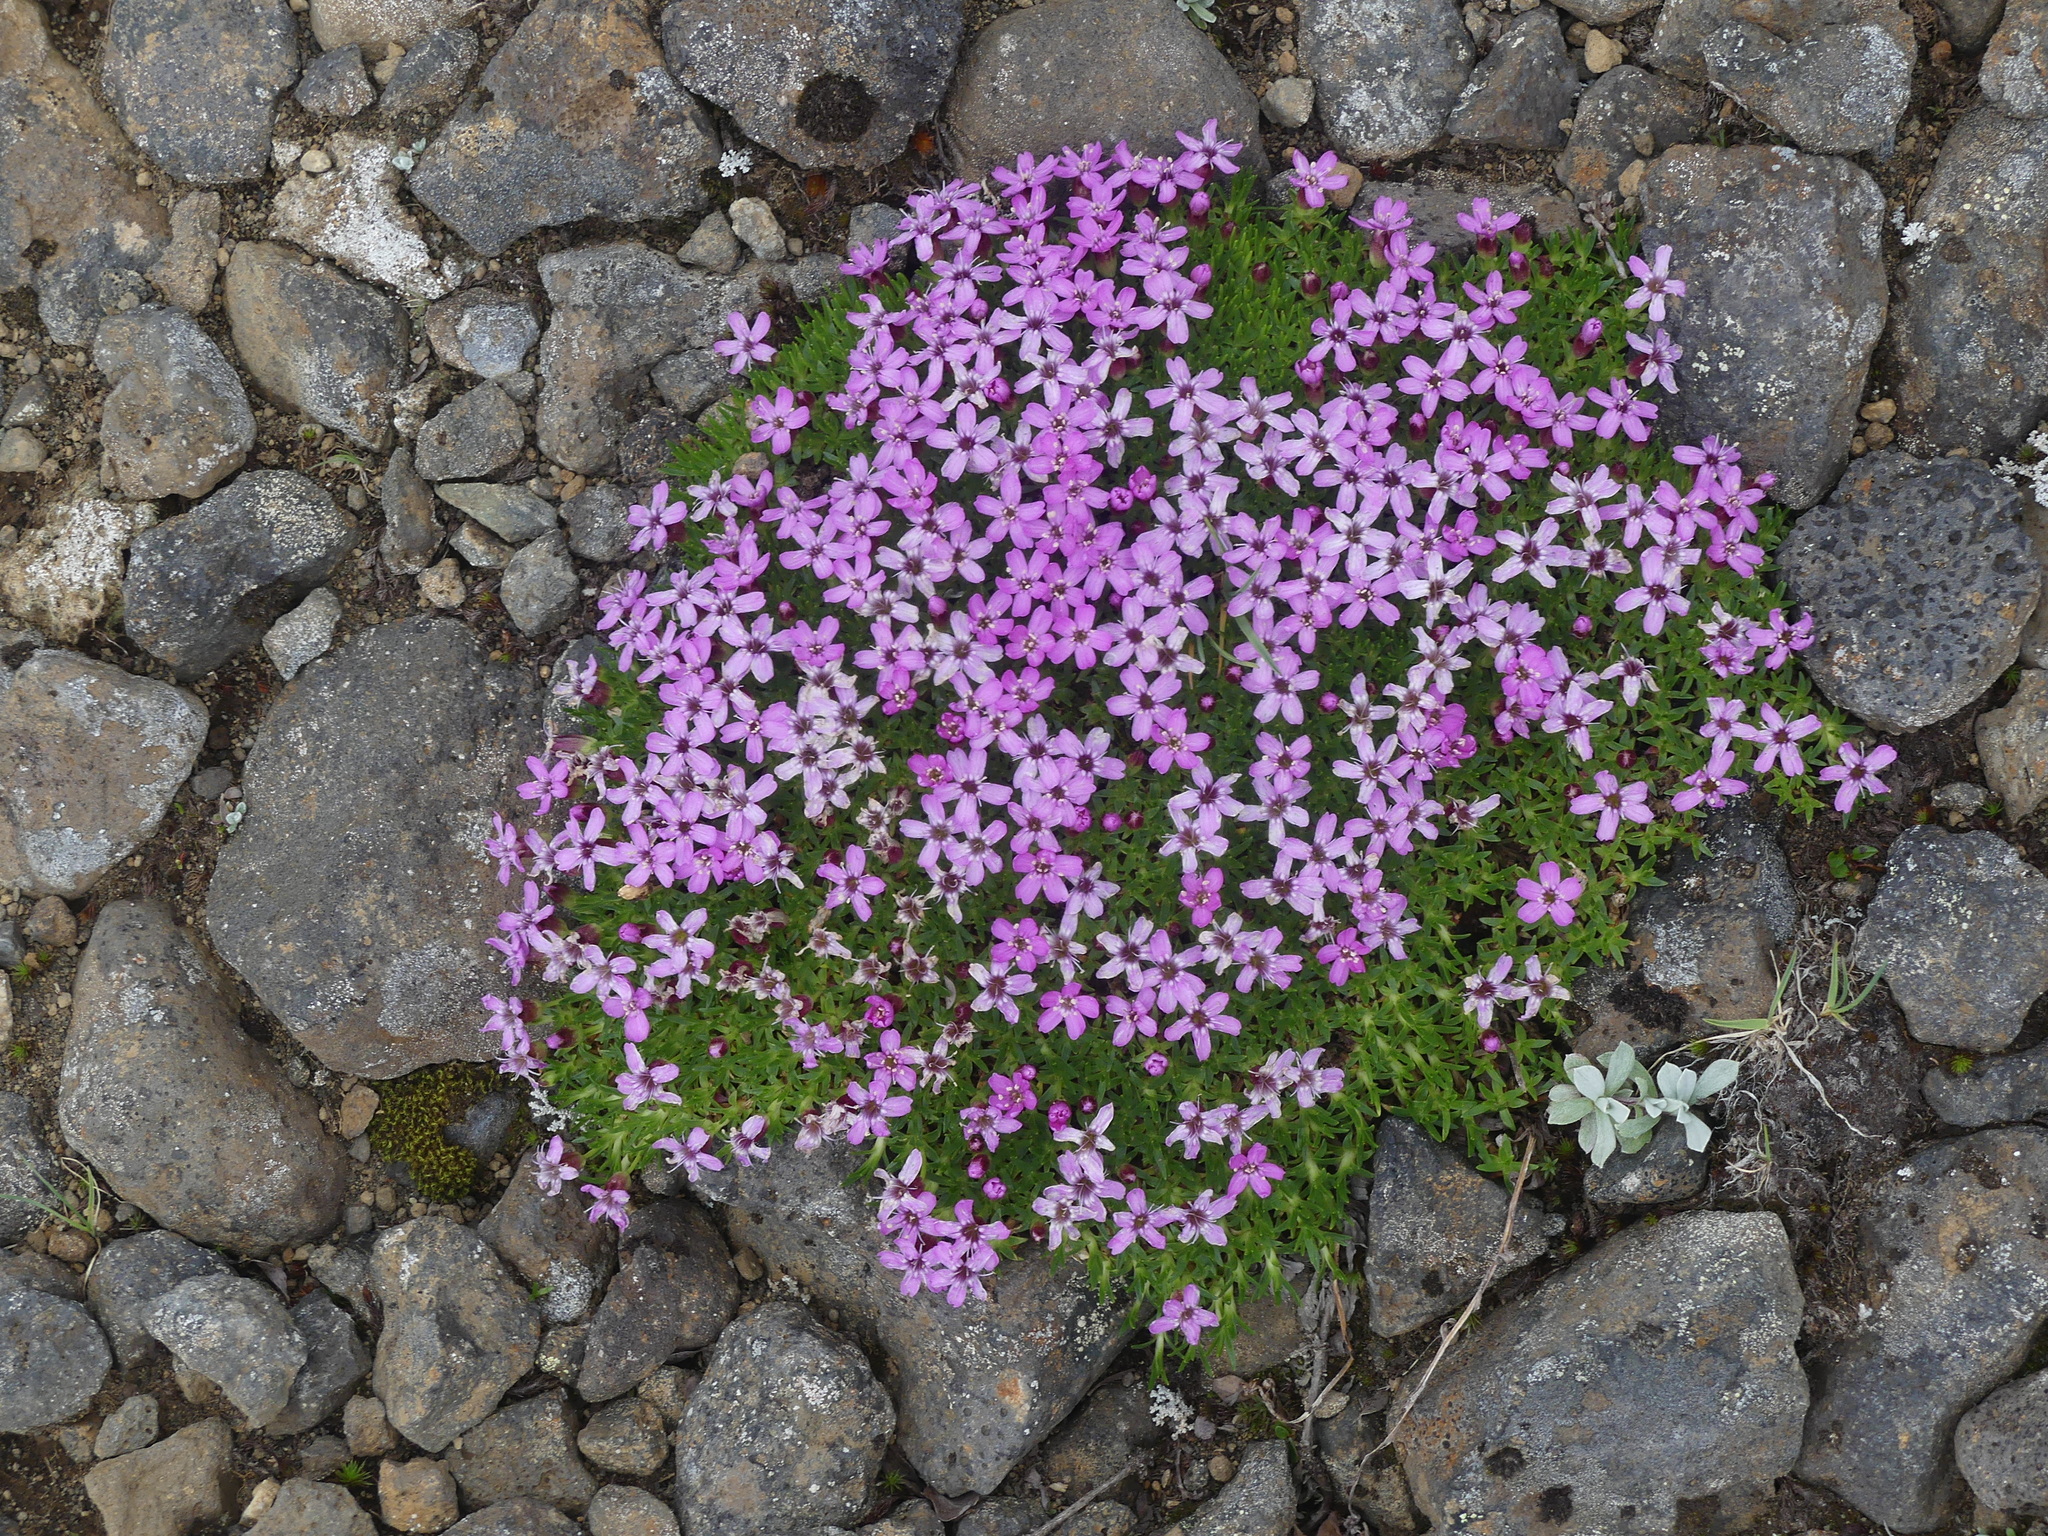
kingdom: Plantae
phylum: Tracheophyta
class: Magnoliopsida
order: Caryophyllales
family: Caryophyllaceae
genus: Silene
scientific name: Silene acaulis
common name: Moss campion
